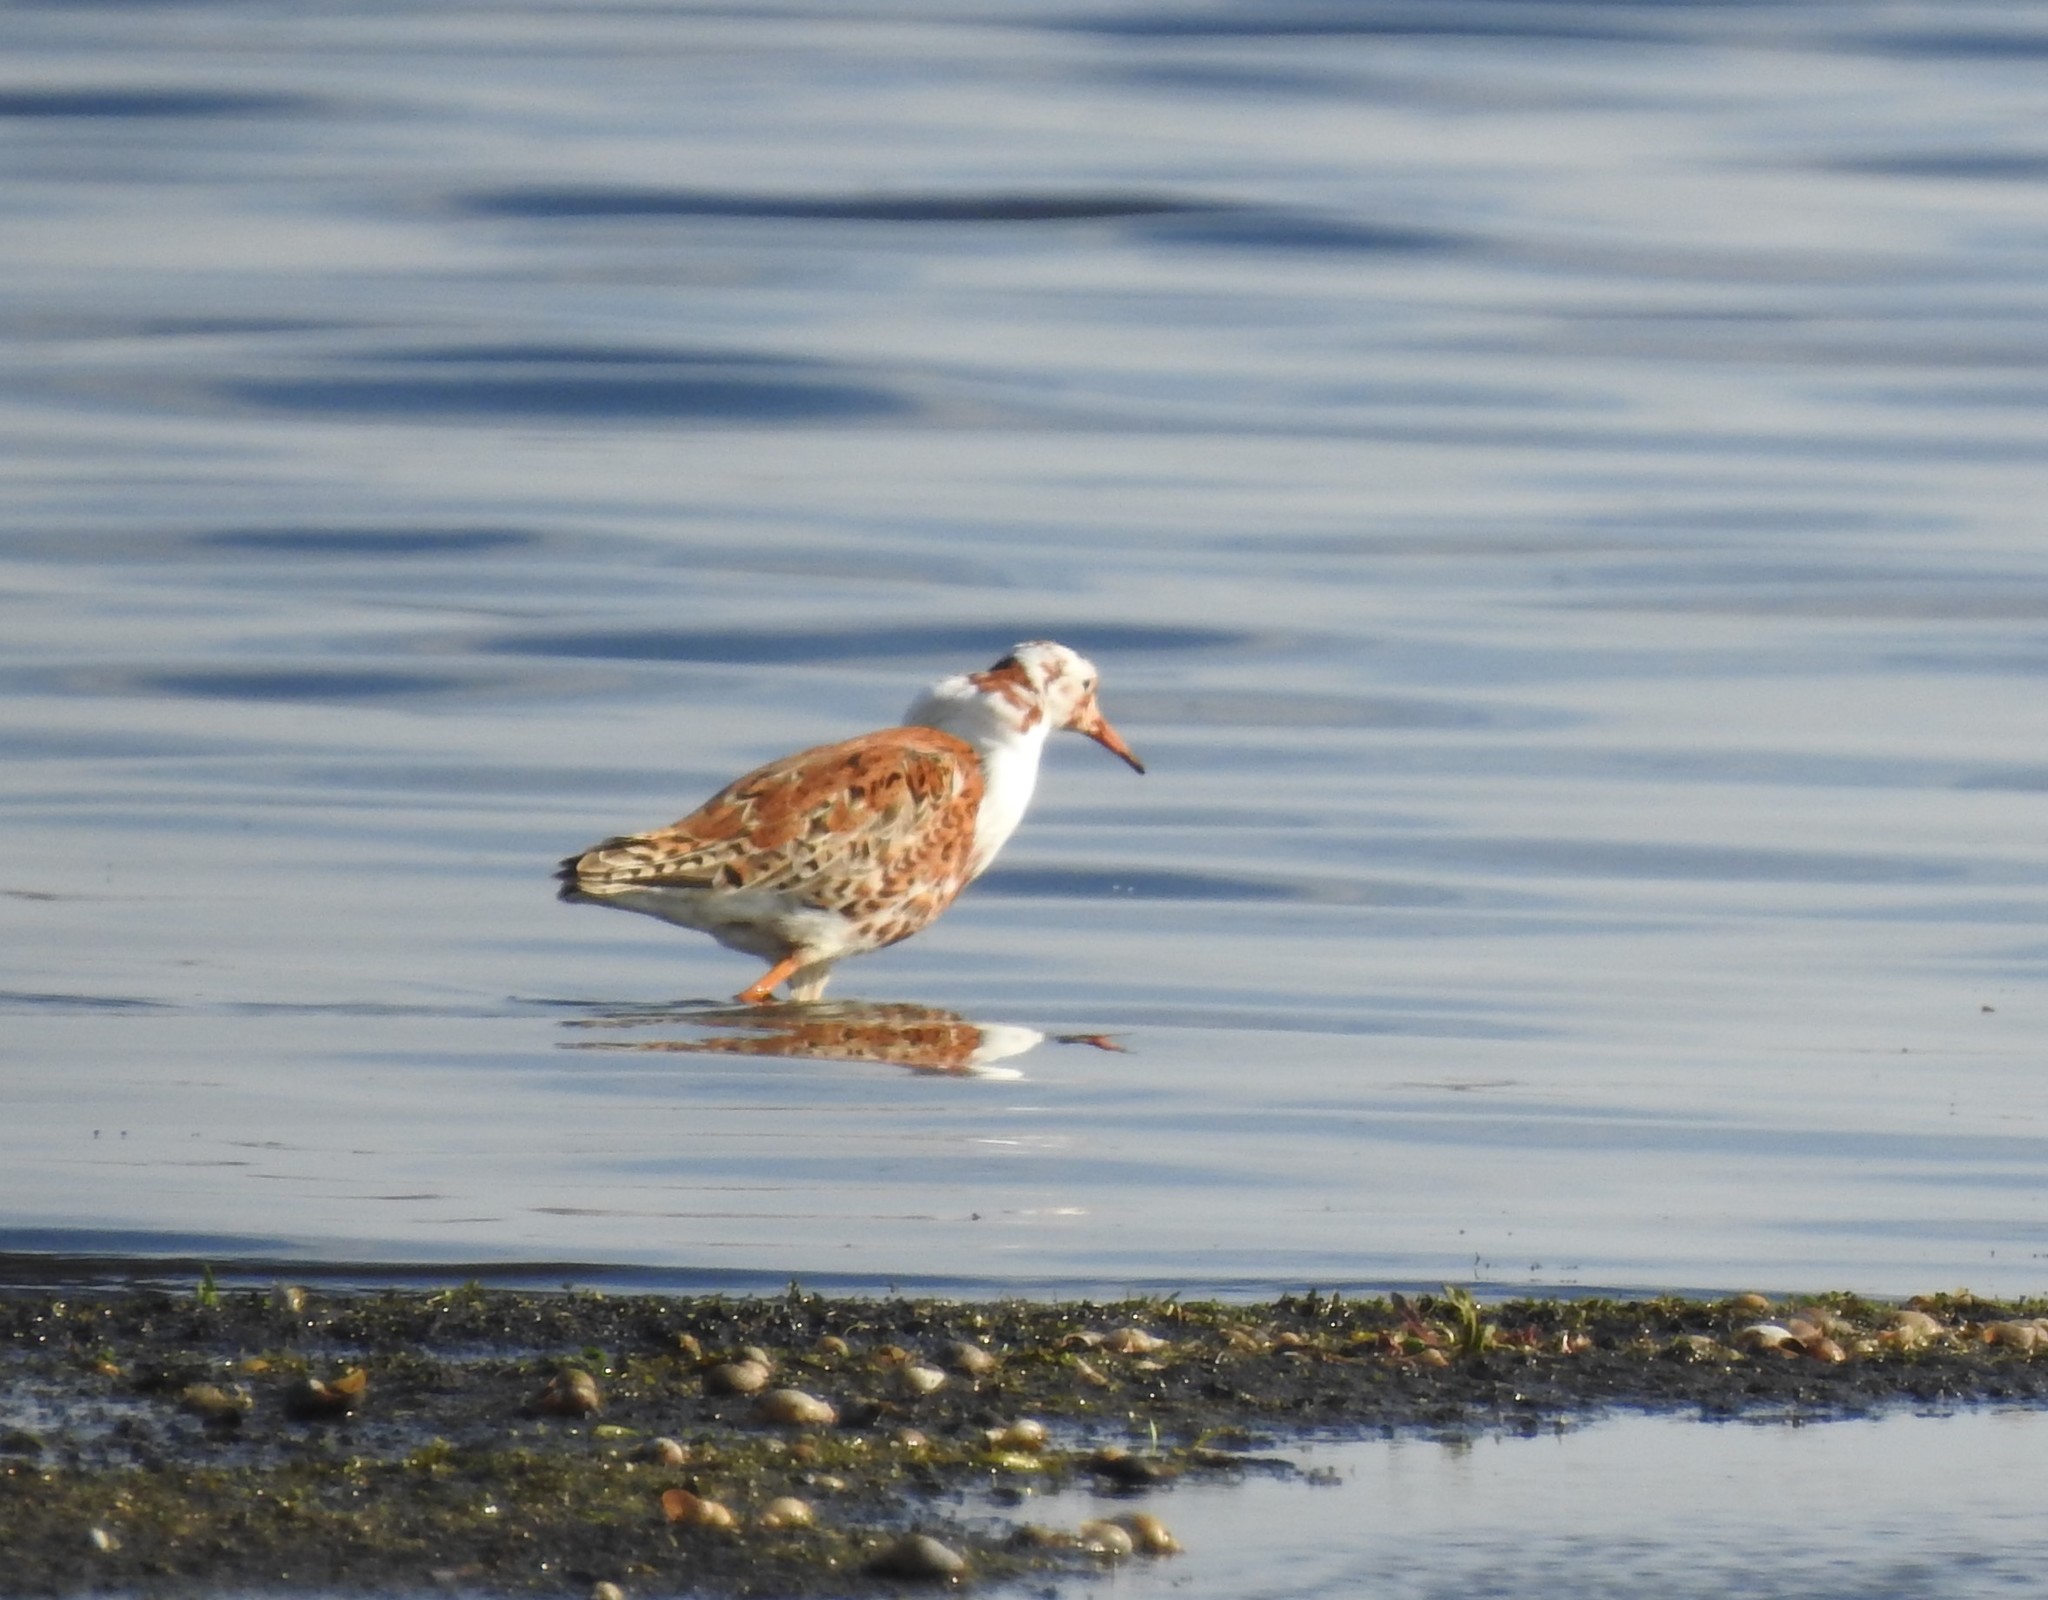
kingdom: Animalia
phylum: Chordata
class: Aves
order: Charadriiformes
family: Scolopacidae
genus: Calidris
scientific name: Calidris pugnax
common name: Ruff
